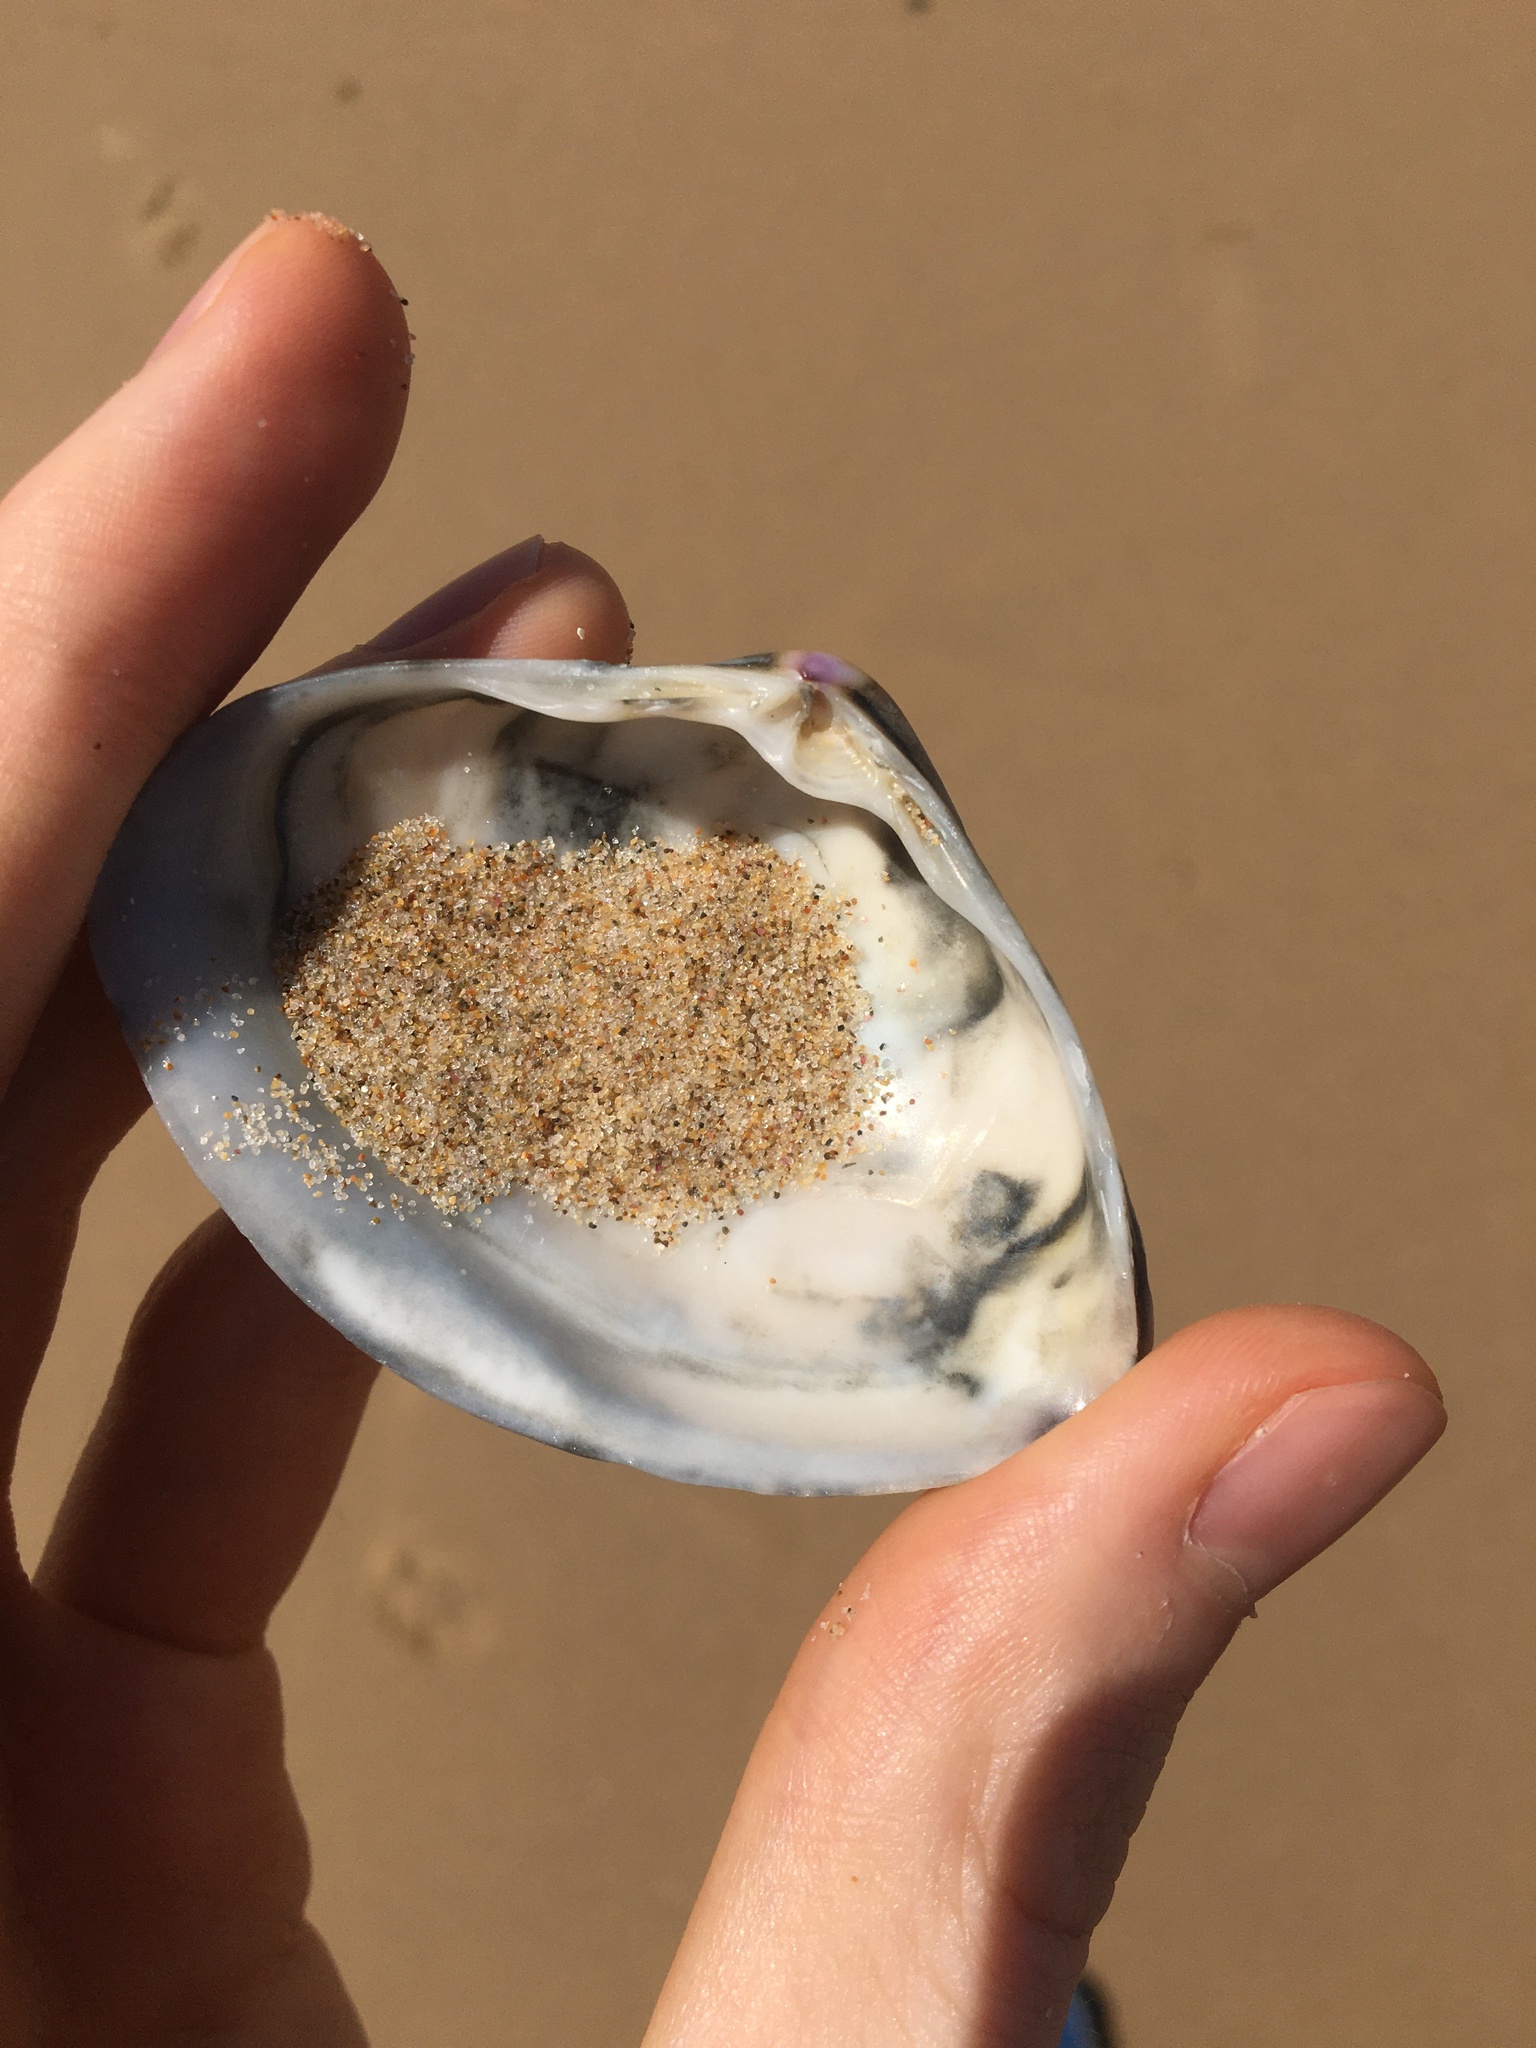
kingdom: Animalia
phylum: Mollusca
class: Bivalvia
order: Venerida
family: Mactridae
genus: Austromactra
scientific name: Austromactra rufescens
